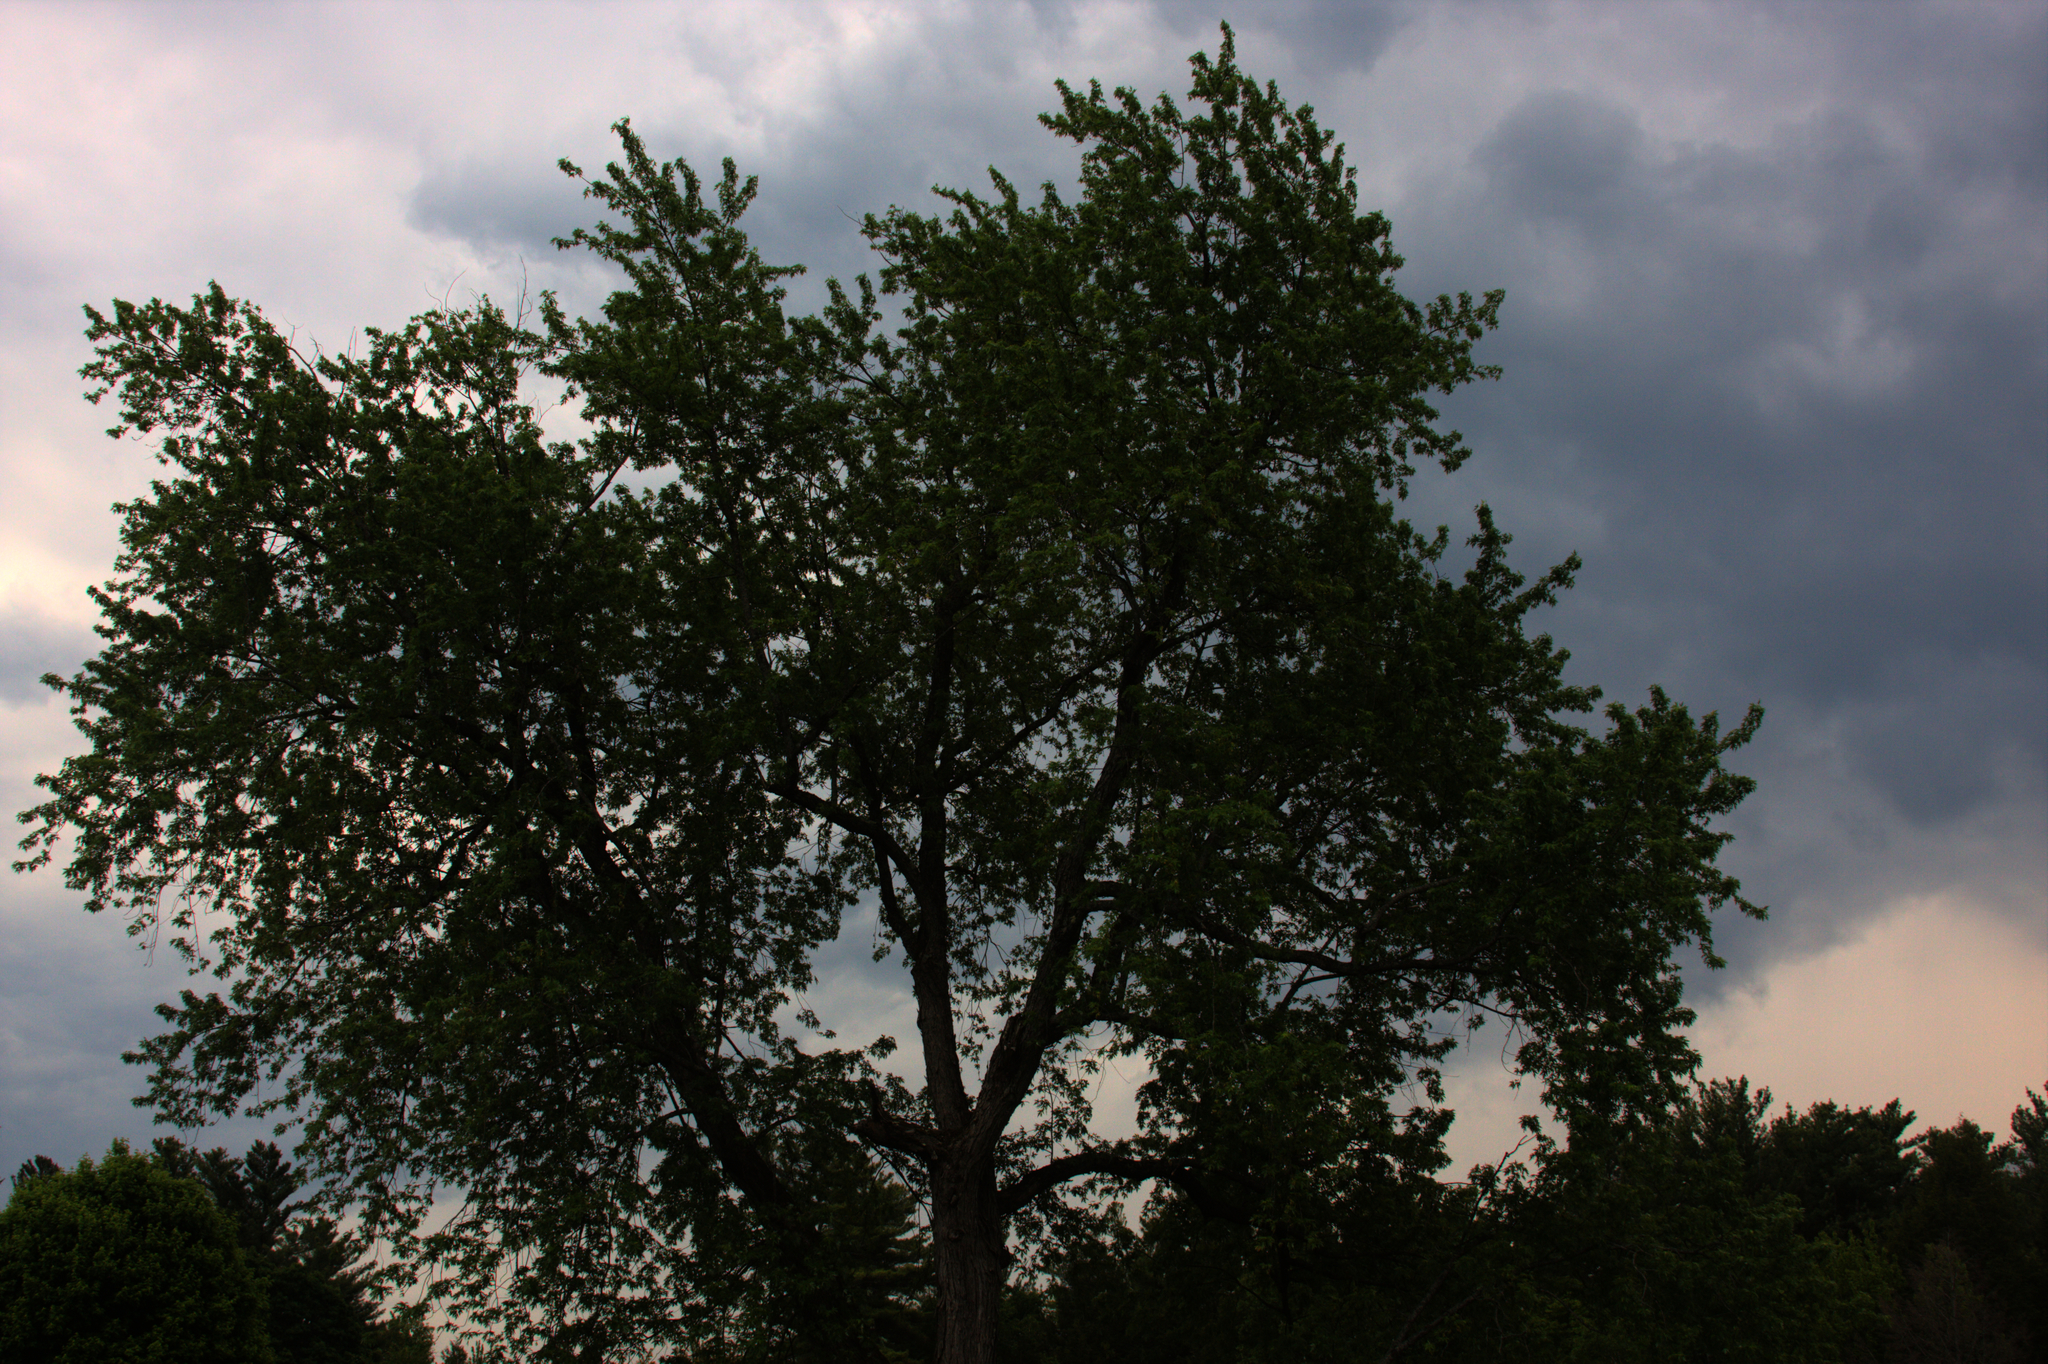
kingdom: Plantae
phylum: Tracheophyta
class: Magnoliopsida
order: Sapindales
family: Sapindaceae
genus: Acer
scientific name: Acer saccharinum
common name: Silver maple
